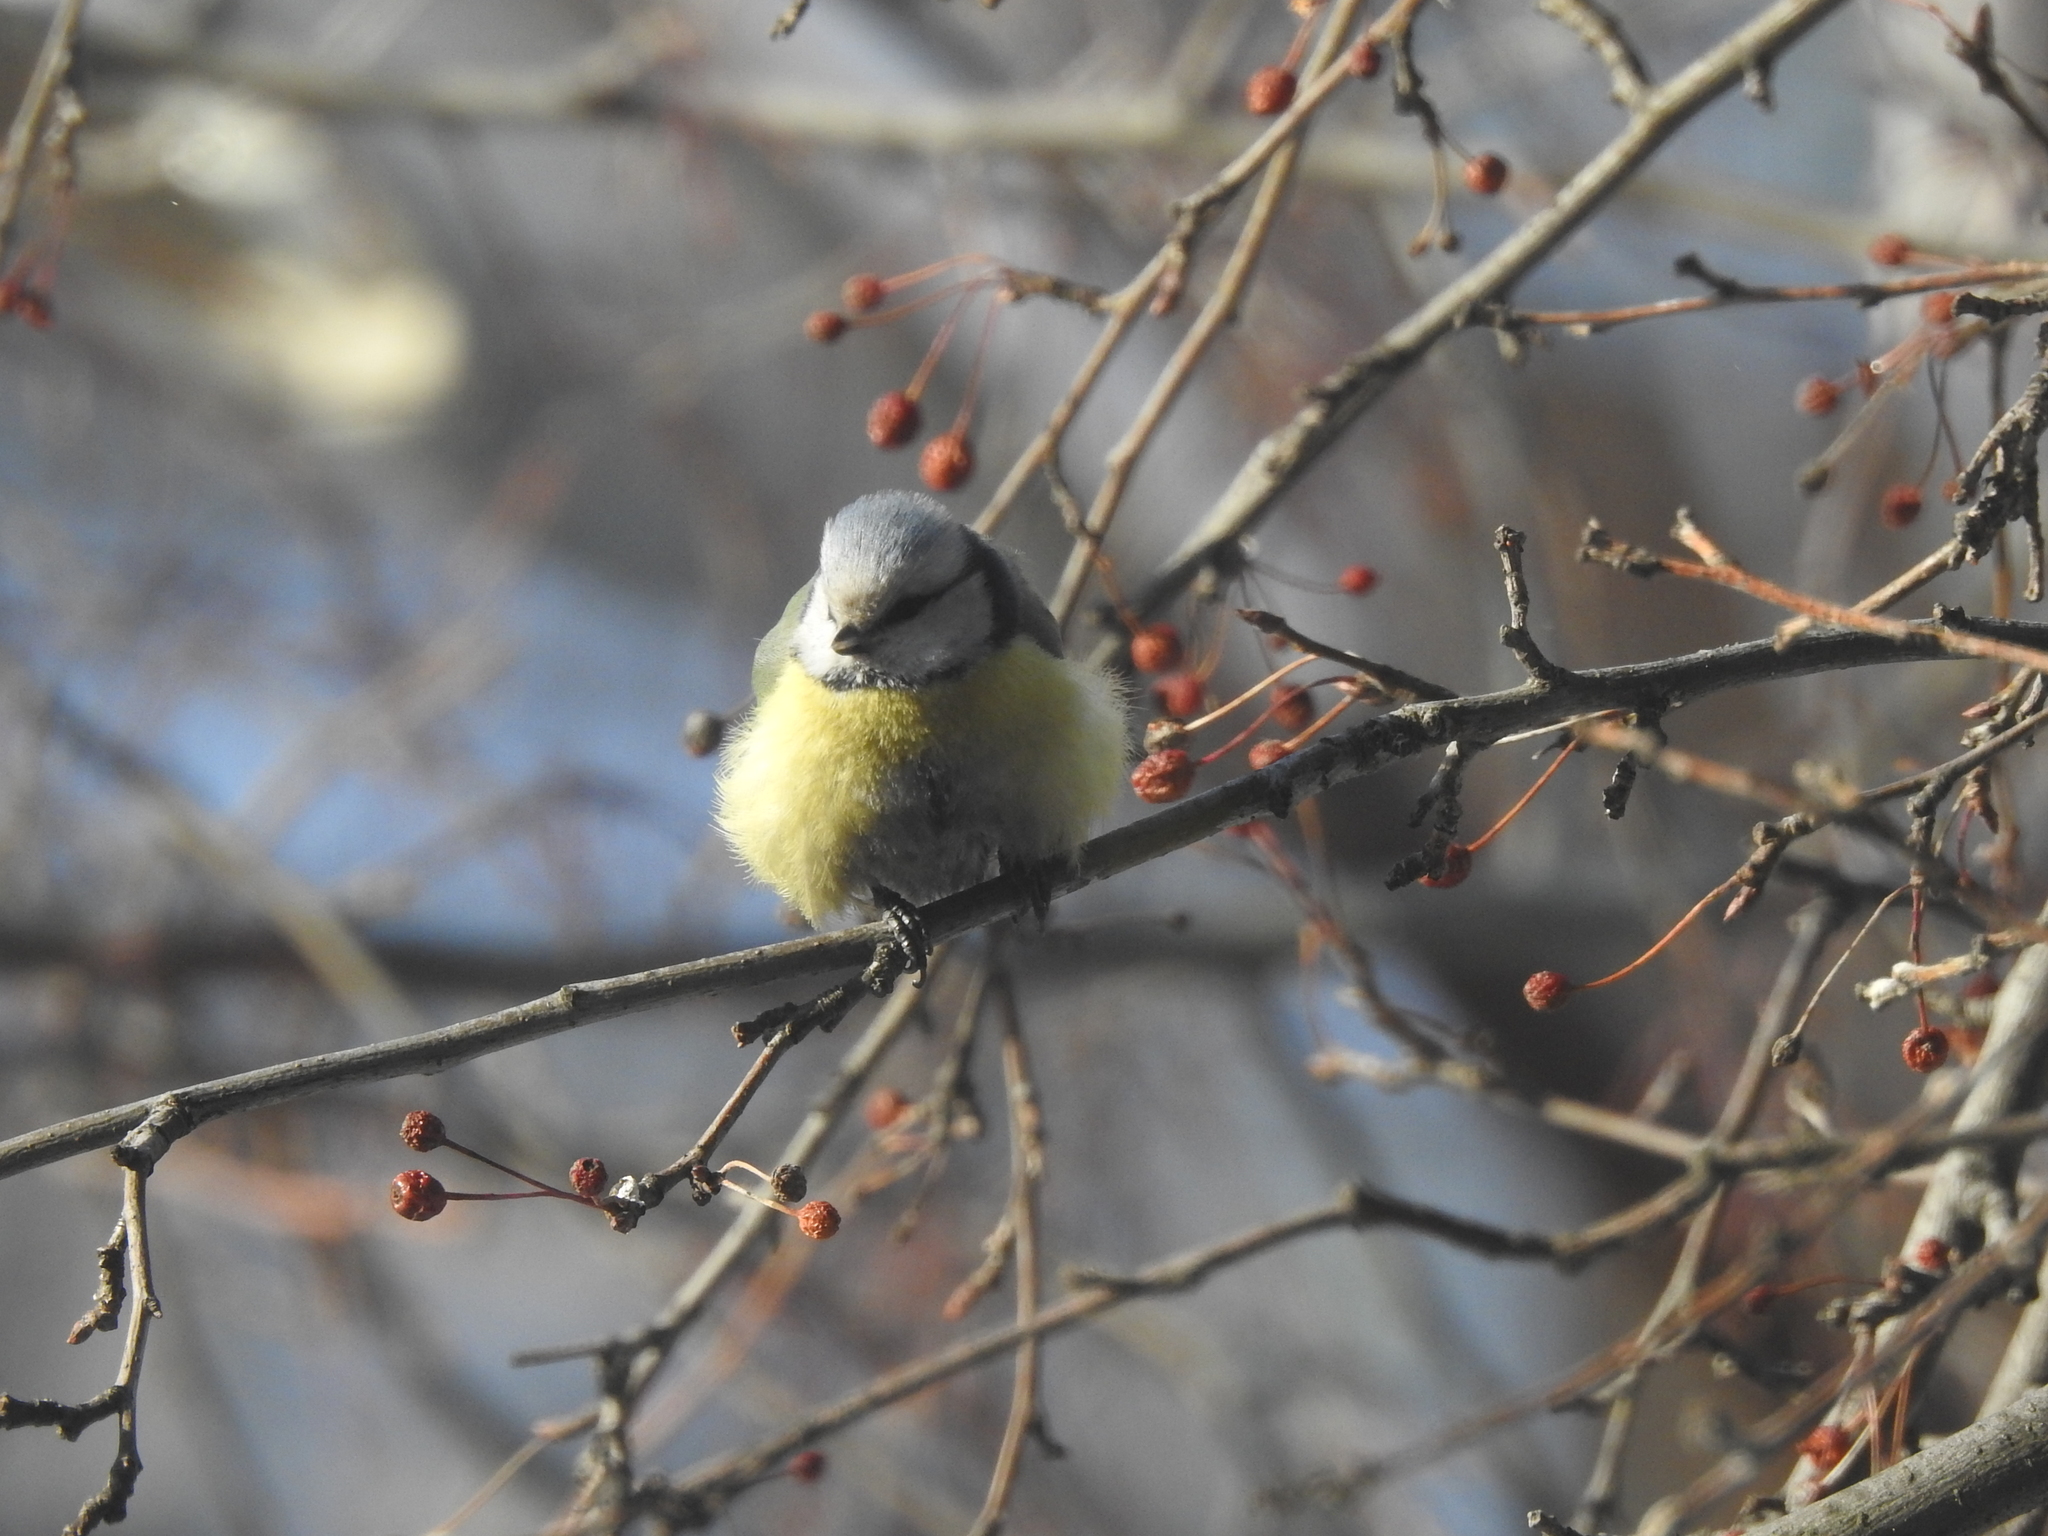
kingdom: Animalia
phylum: Chordata
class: Aves
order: Passeriformes
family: Paridae
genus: Cyanistes
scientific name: Cyanistes caeruleus
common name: Eurasian blue tit
